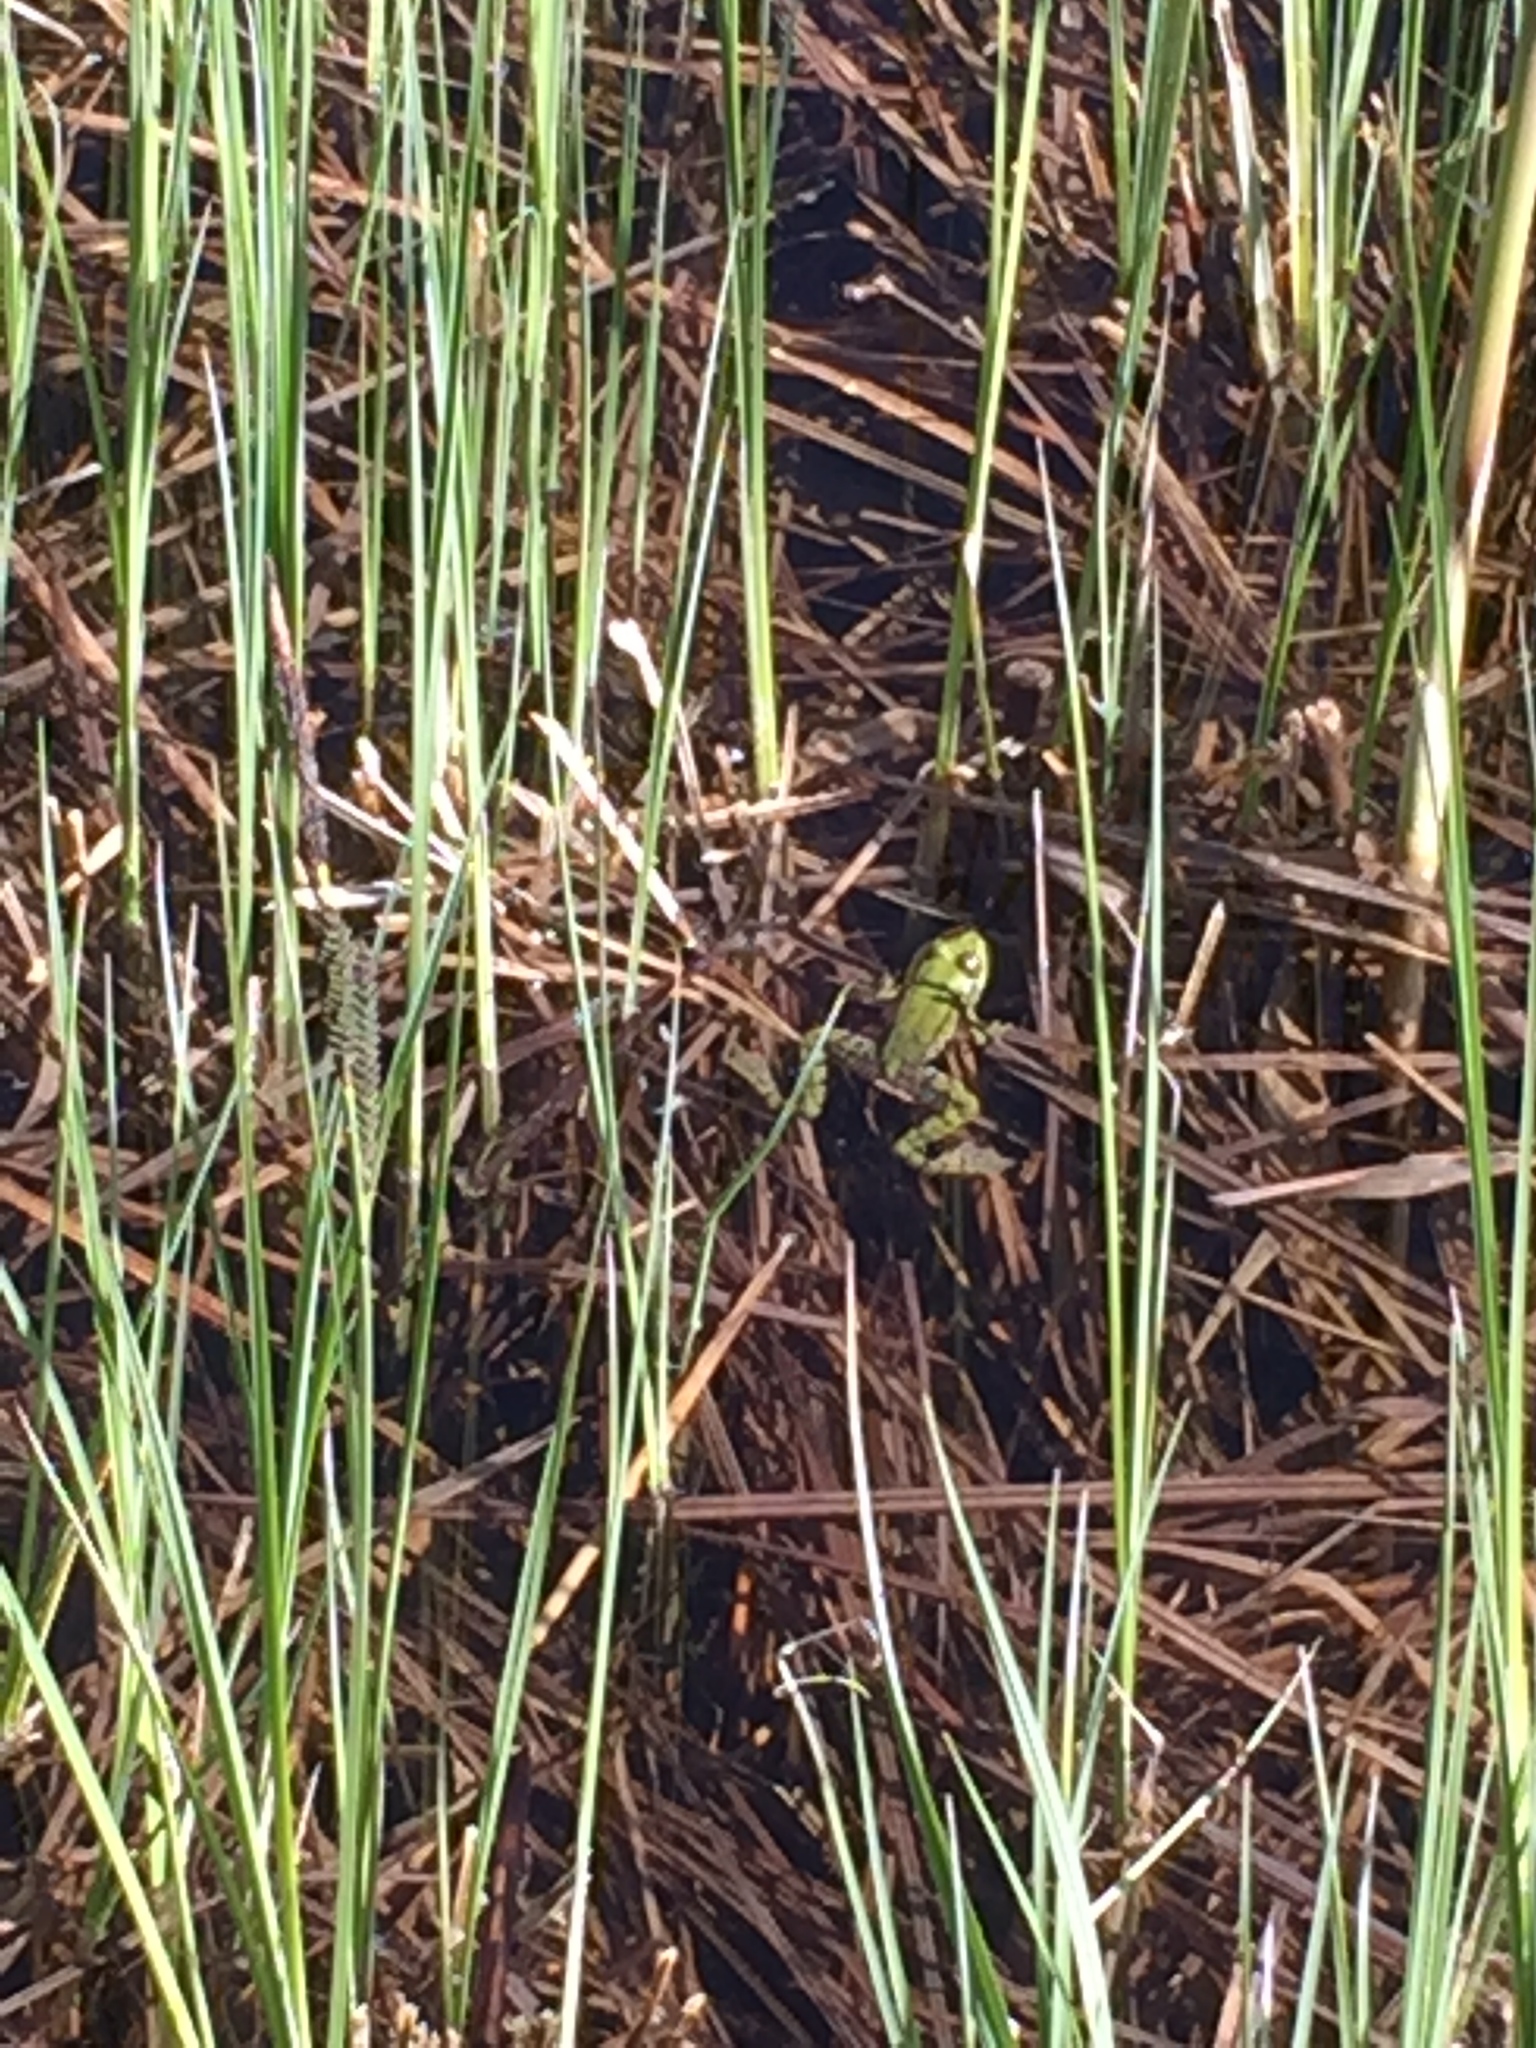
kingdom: Animalia
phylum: Chordata
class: Amphibia
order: Anura
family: Ranidae
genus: Pelophylax
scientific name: Pelophylax
